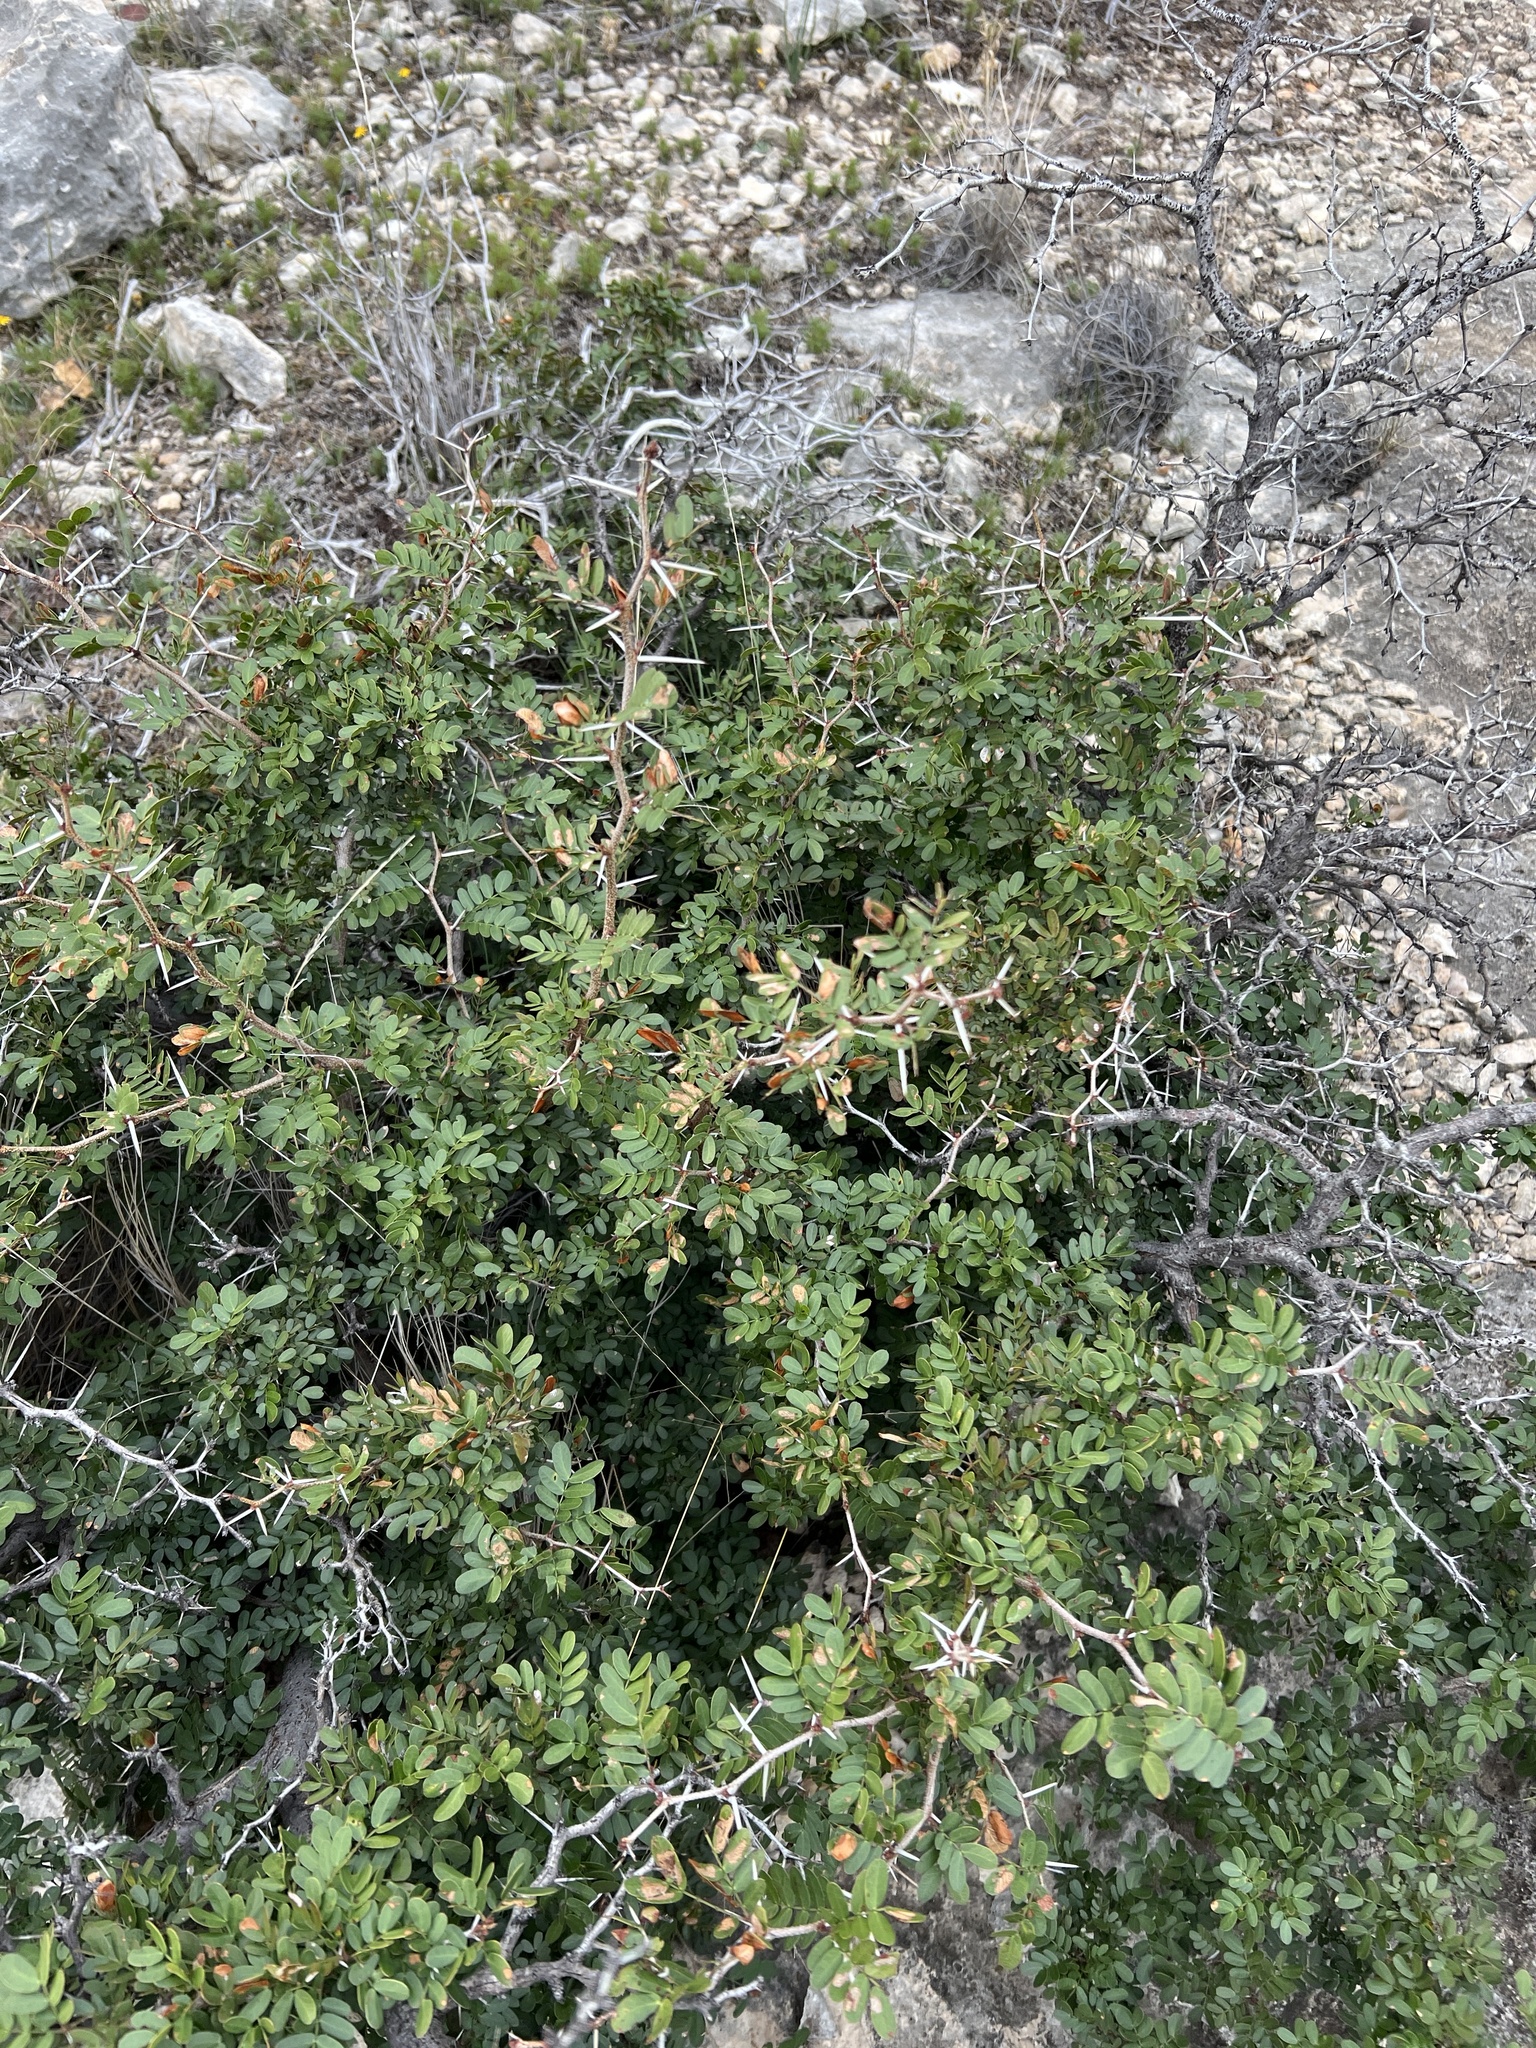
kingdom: Plantae
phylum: Tracheophyta
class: Magnoliopsida
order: Fabales
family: Fabaceae
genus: Vachellia
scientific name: Vachellia rigidula
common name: Blackbrush
